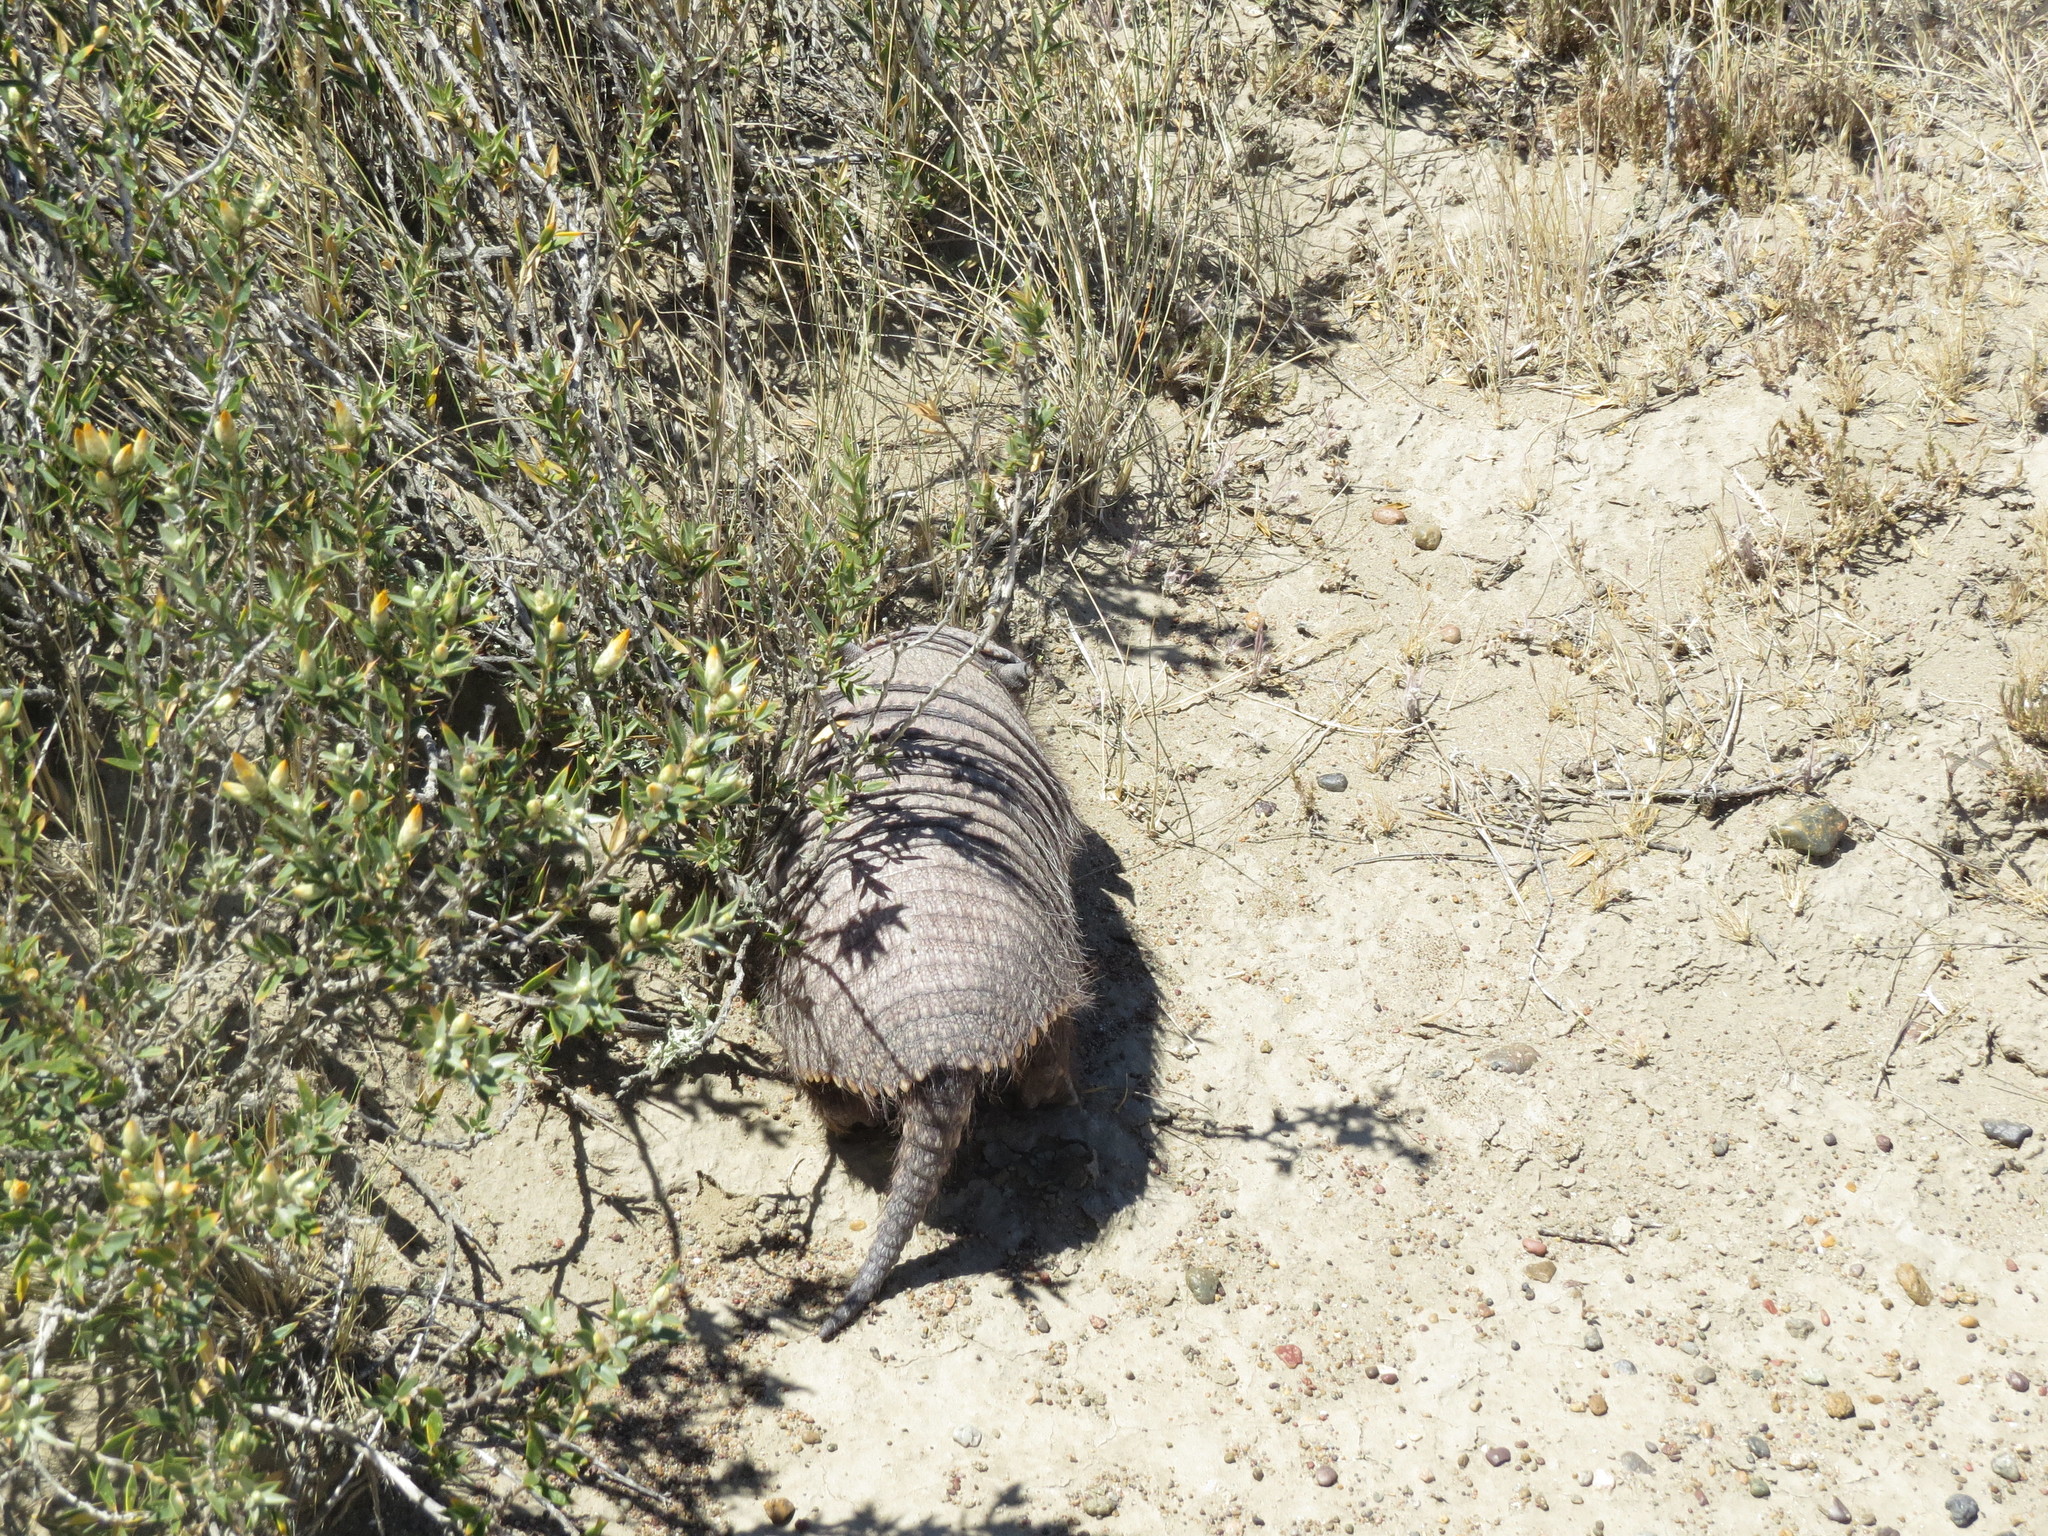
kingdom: Animalia
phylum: Chordata
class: Mammalia
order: Cingulata
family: Dasypodidae
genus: Chaetophractus
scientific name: Chaetophractus villosus
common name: Big hairy armadillo
